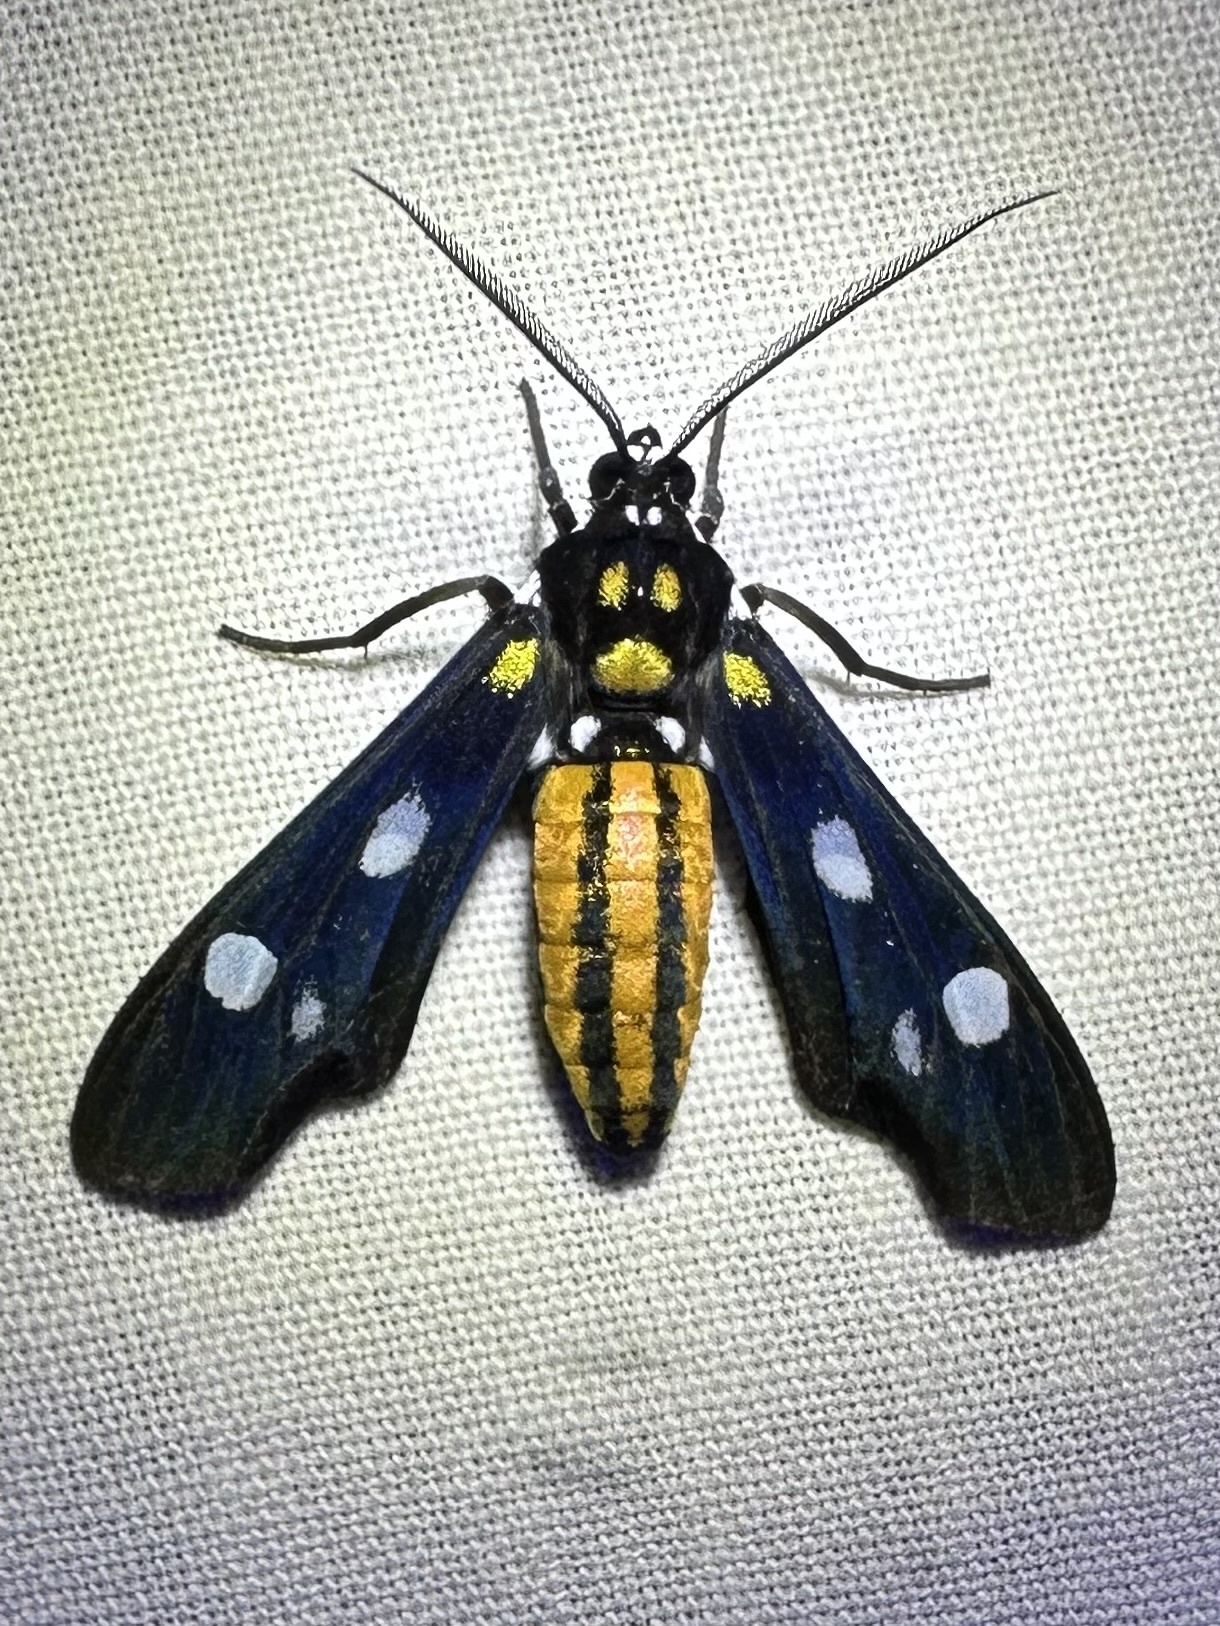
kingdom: Animalia
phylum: Arthropoda
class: Insecta
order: Lepidoptera
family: Erebidae
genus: Calonotos
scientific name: Calonotos metallicus
